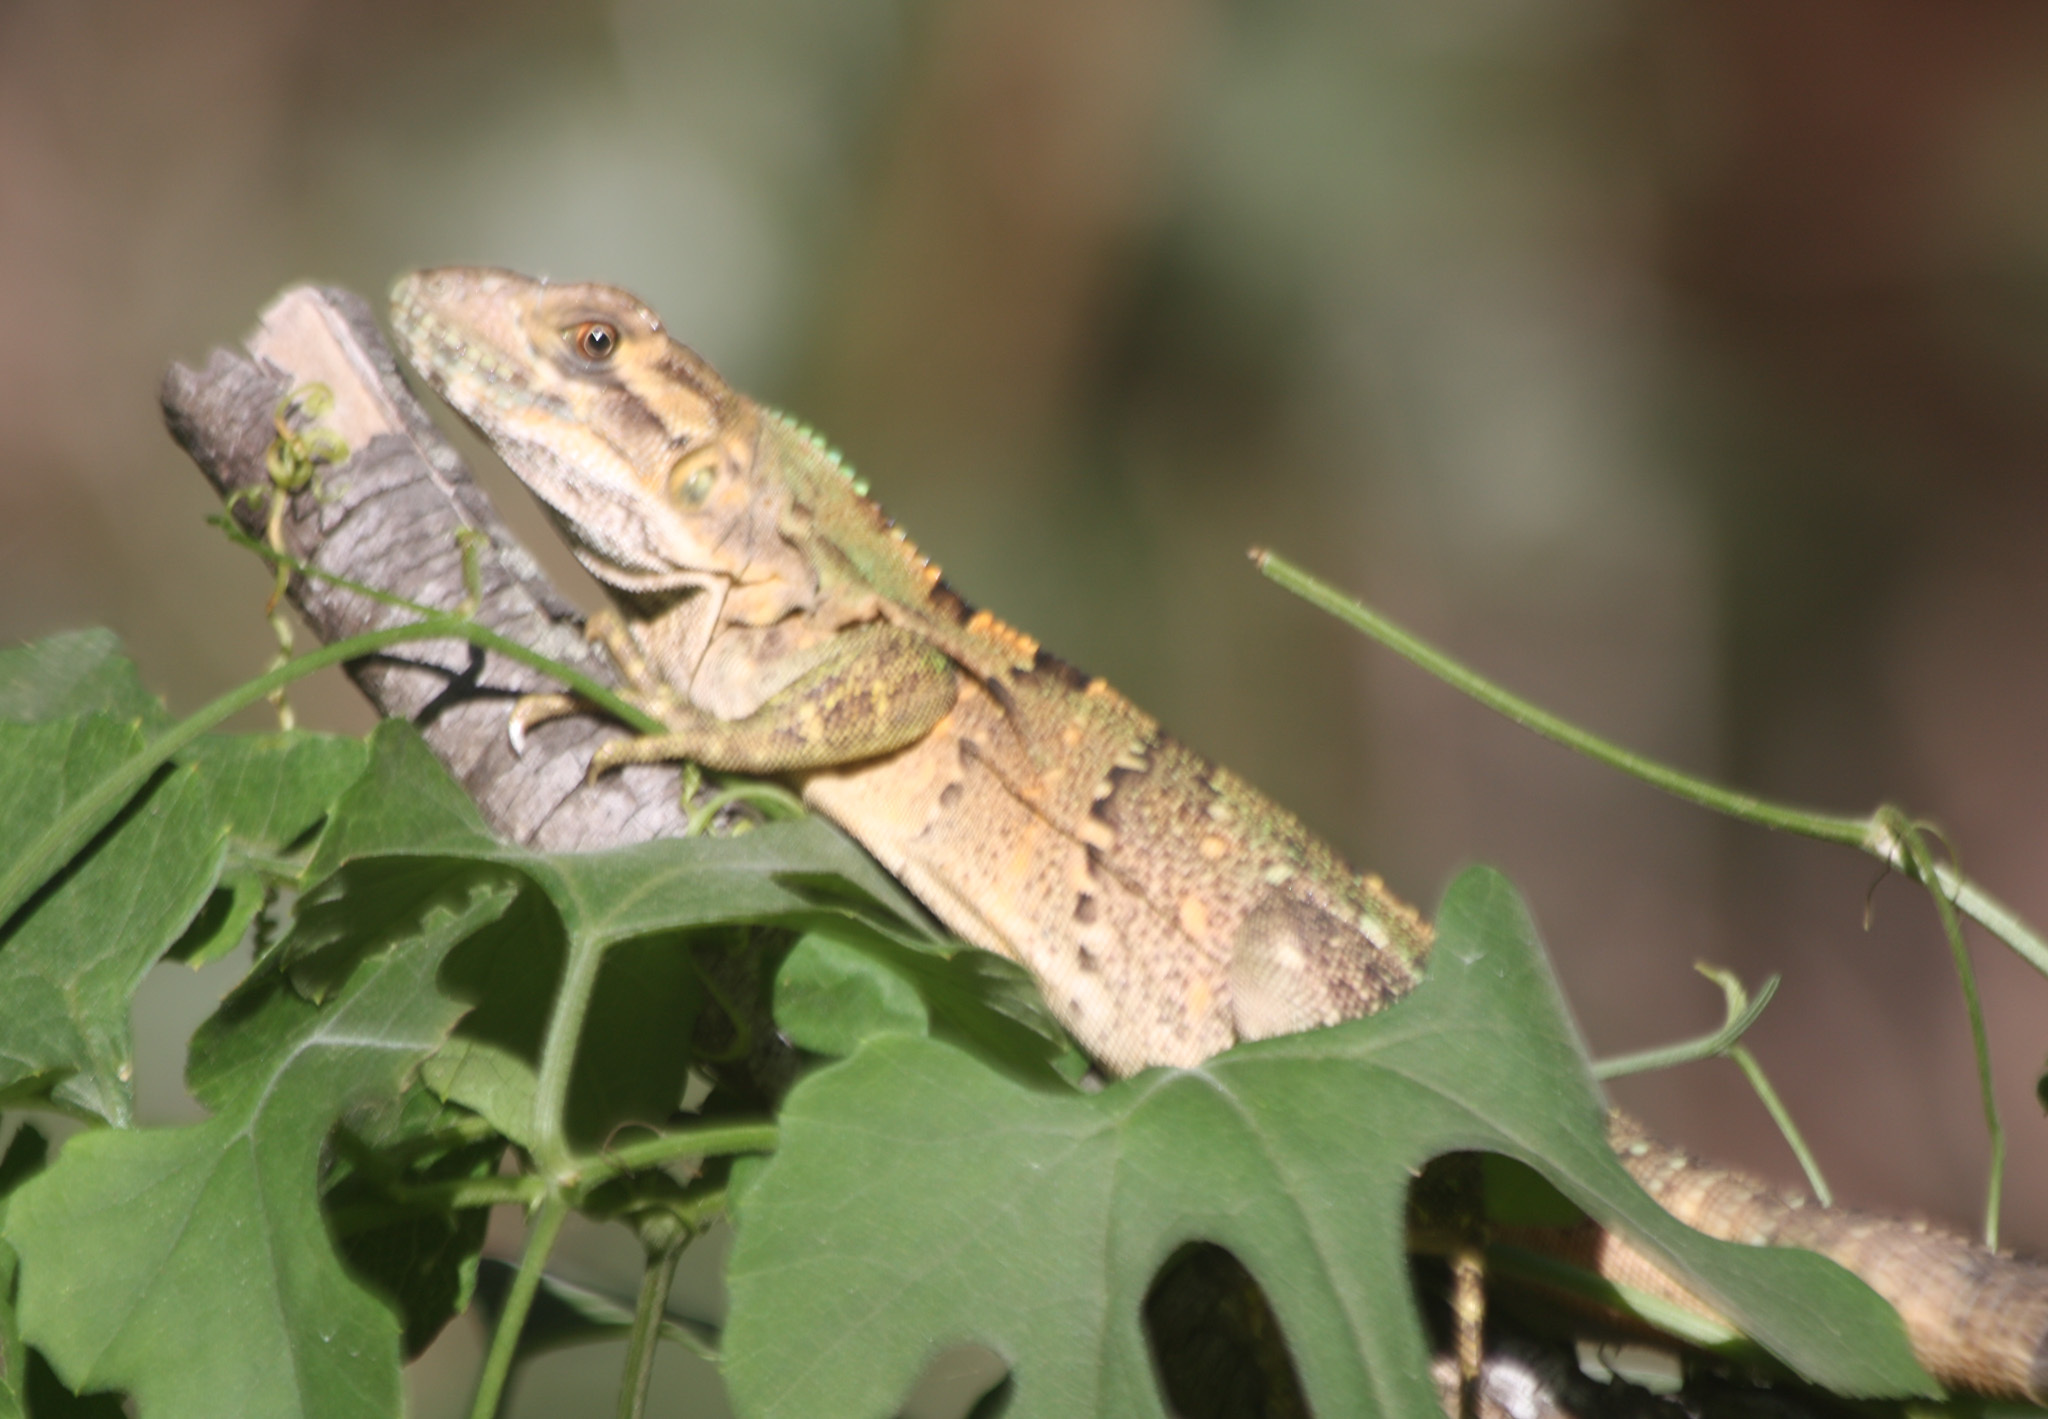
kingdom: Animalia
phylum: Chordata
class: Squamata
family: Iguanidae
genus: Ctenosaura
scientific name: Ctenosaura similis
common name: Black spiny-tailed iguana
